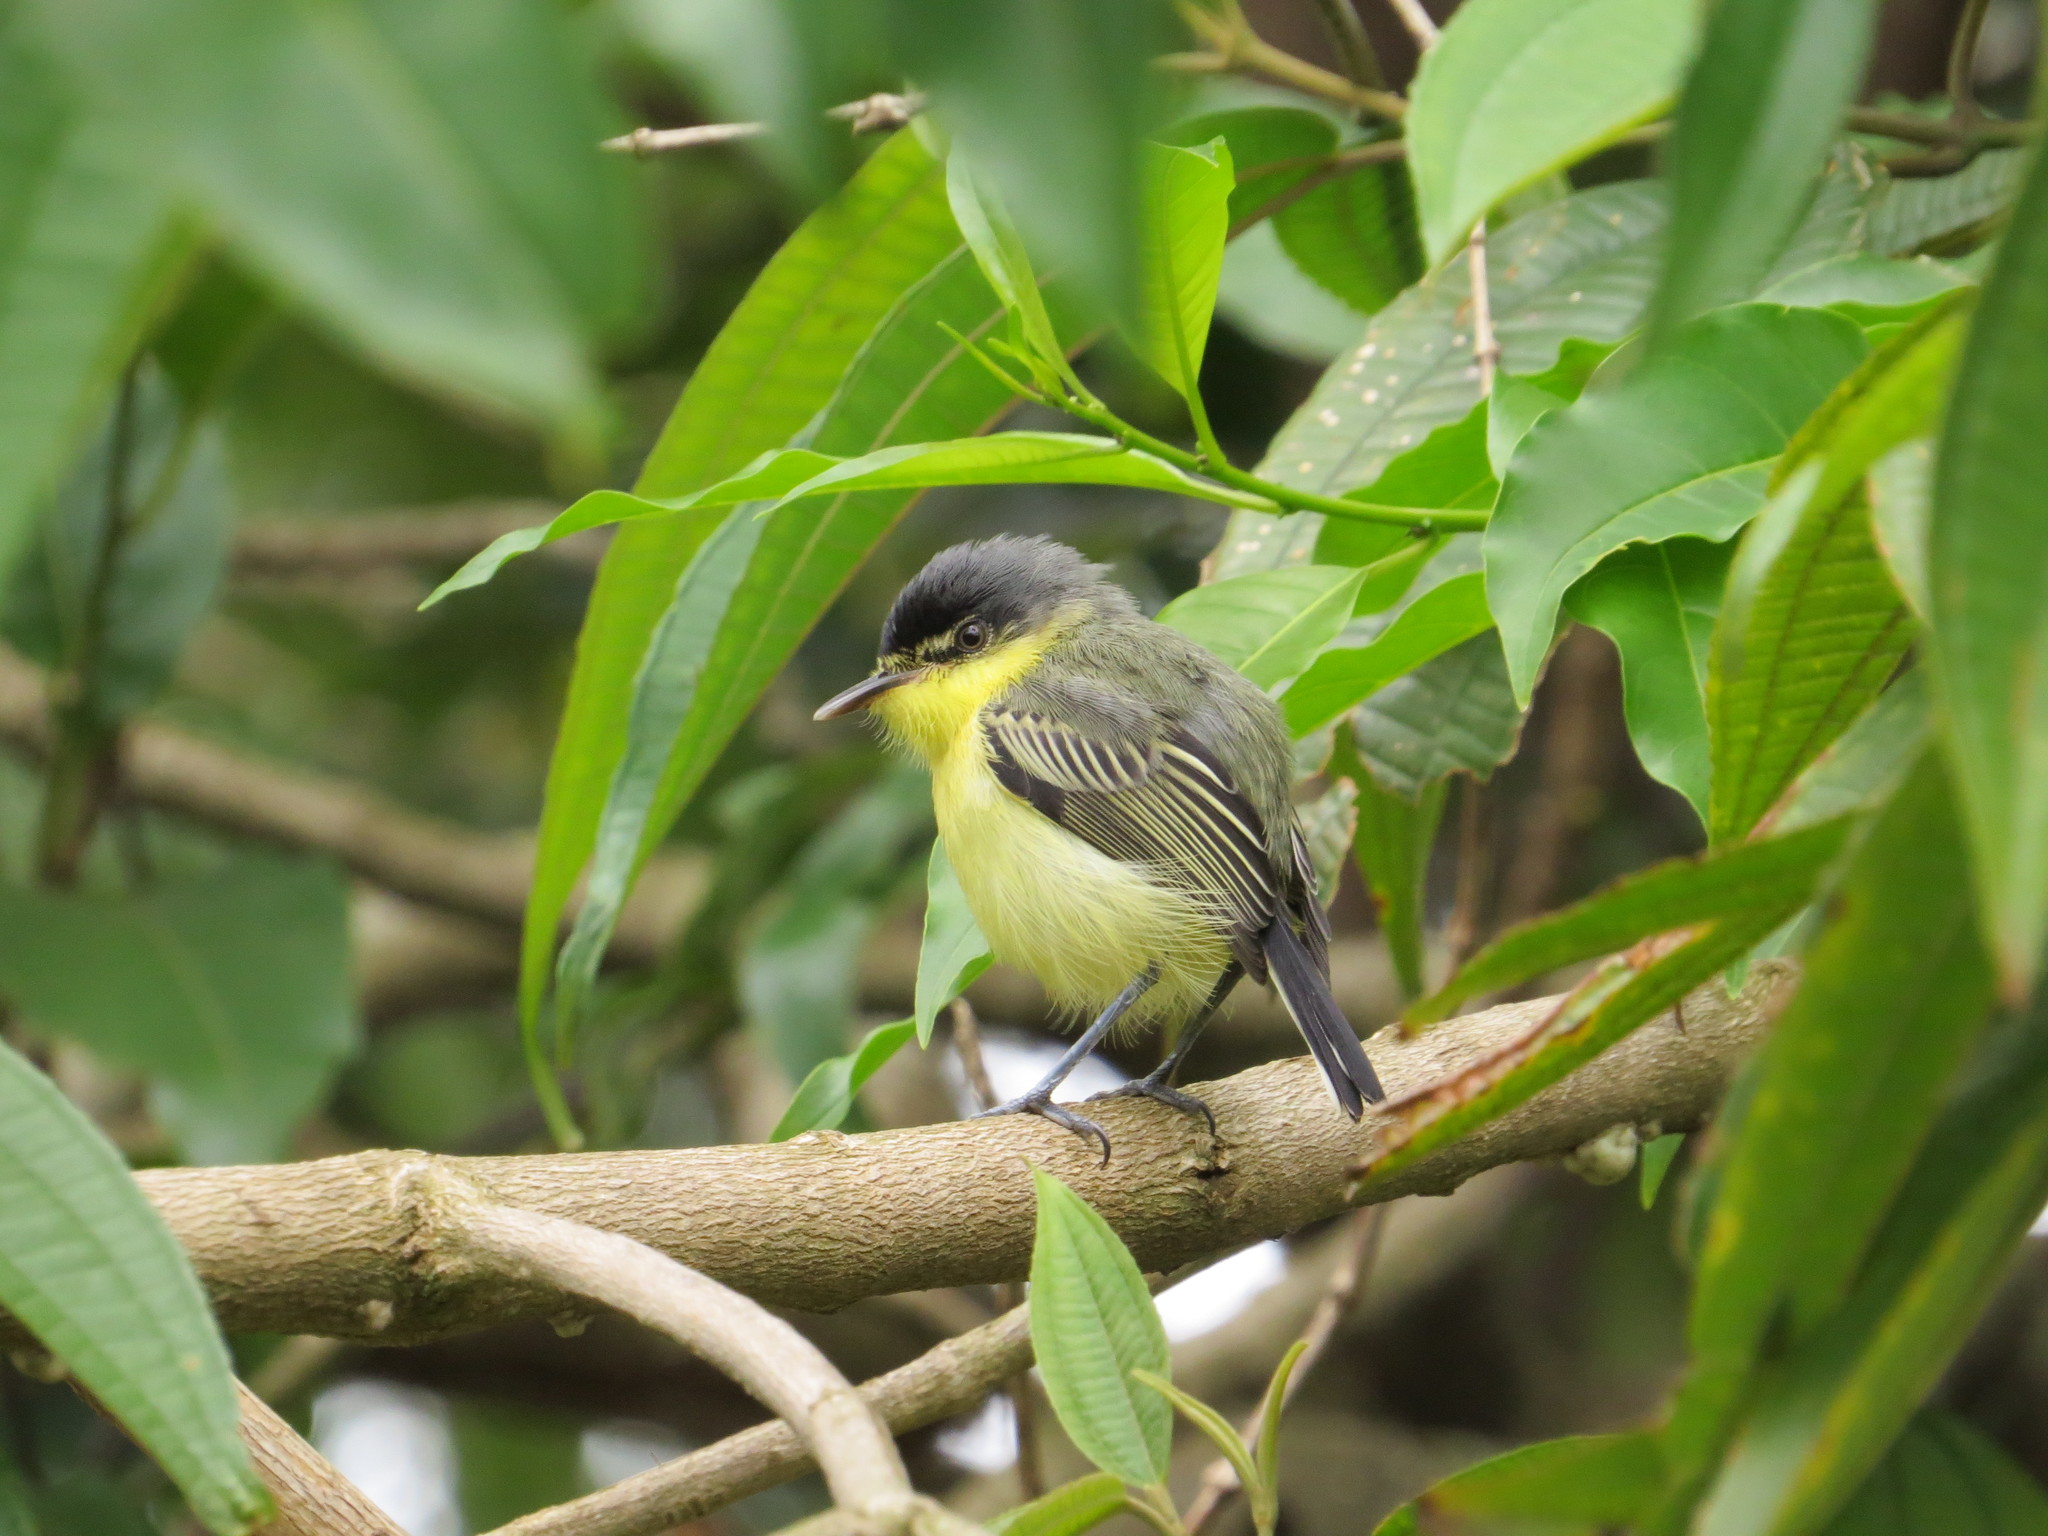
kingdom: Animalia
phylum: Chordata
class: Aves
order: Passeriformes
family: Tyrannidae
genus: Todirostrum
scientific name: Todirostrum cinereum
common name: Common tody-flycatcher
